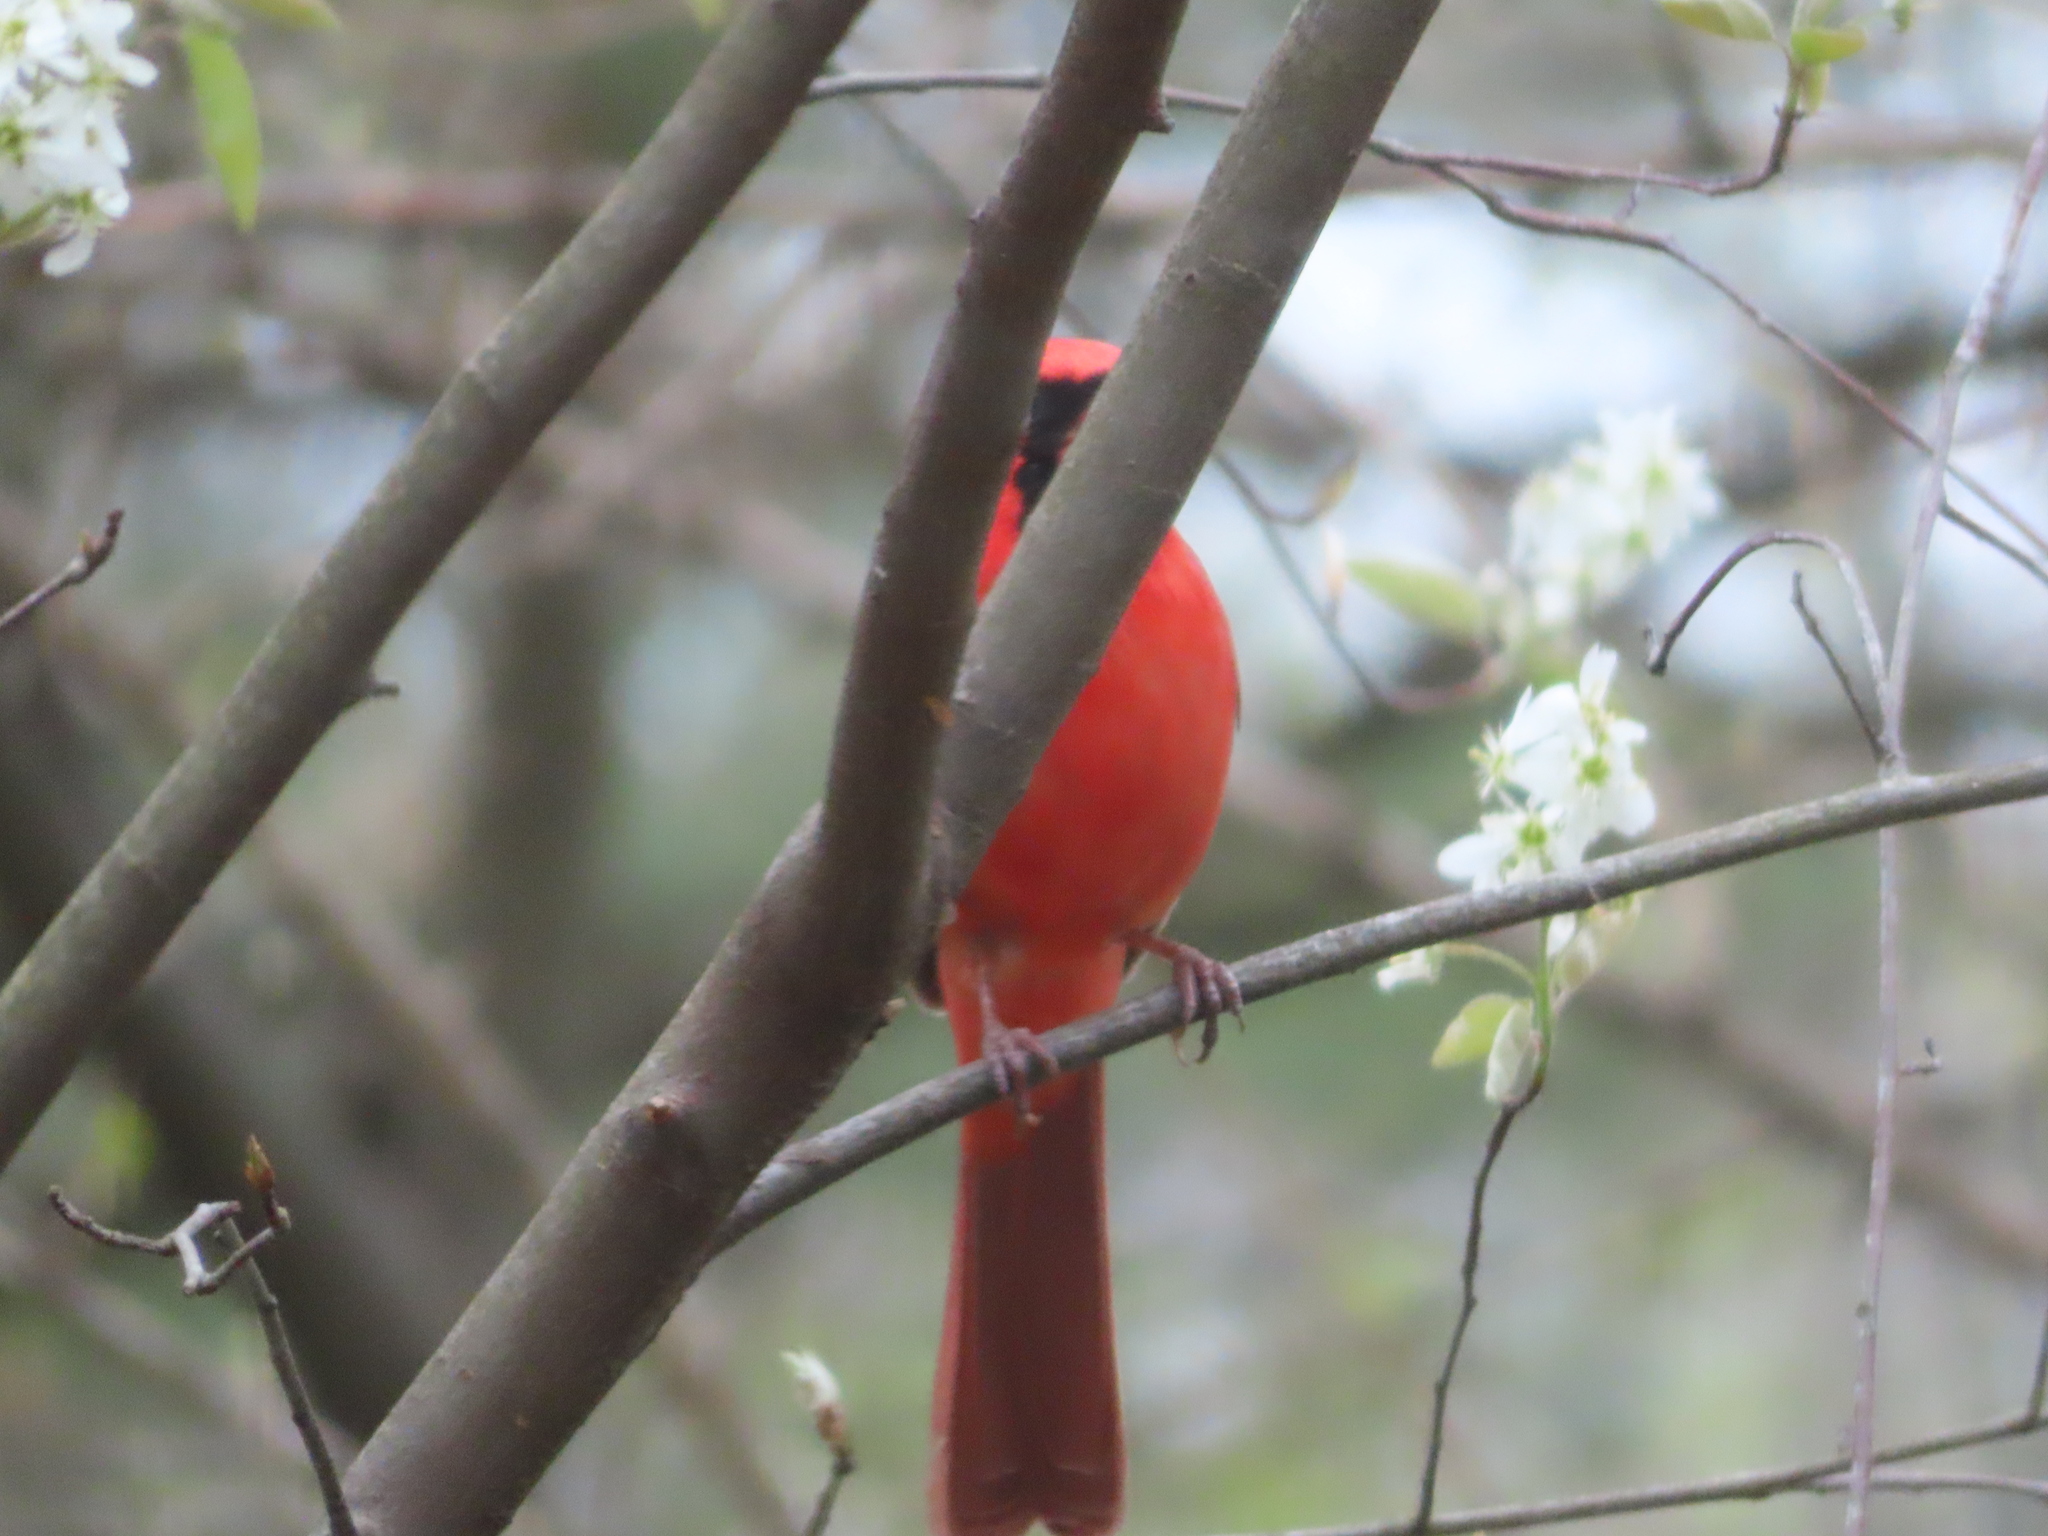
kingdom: Animalia
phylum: Chordata
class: Aves
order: Passeriformes
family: Cardinalidae
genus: Cardinalis
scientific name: Cardinalis cardinalis
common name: Northern cardinal
